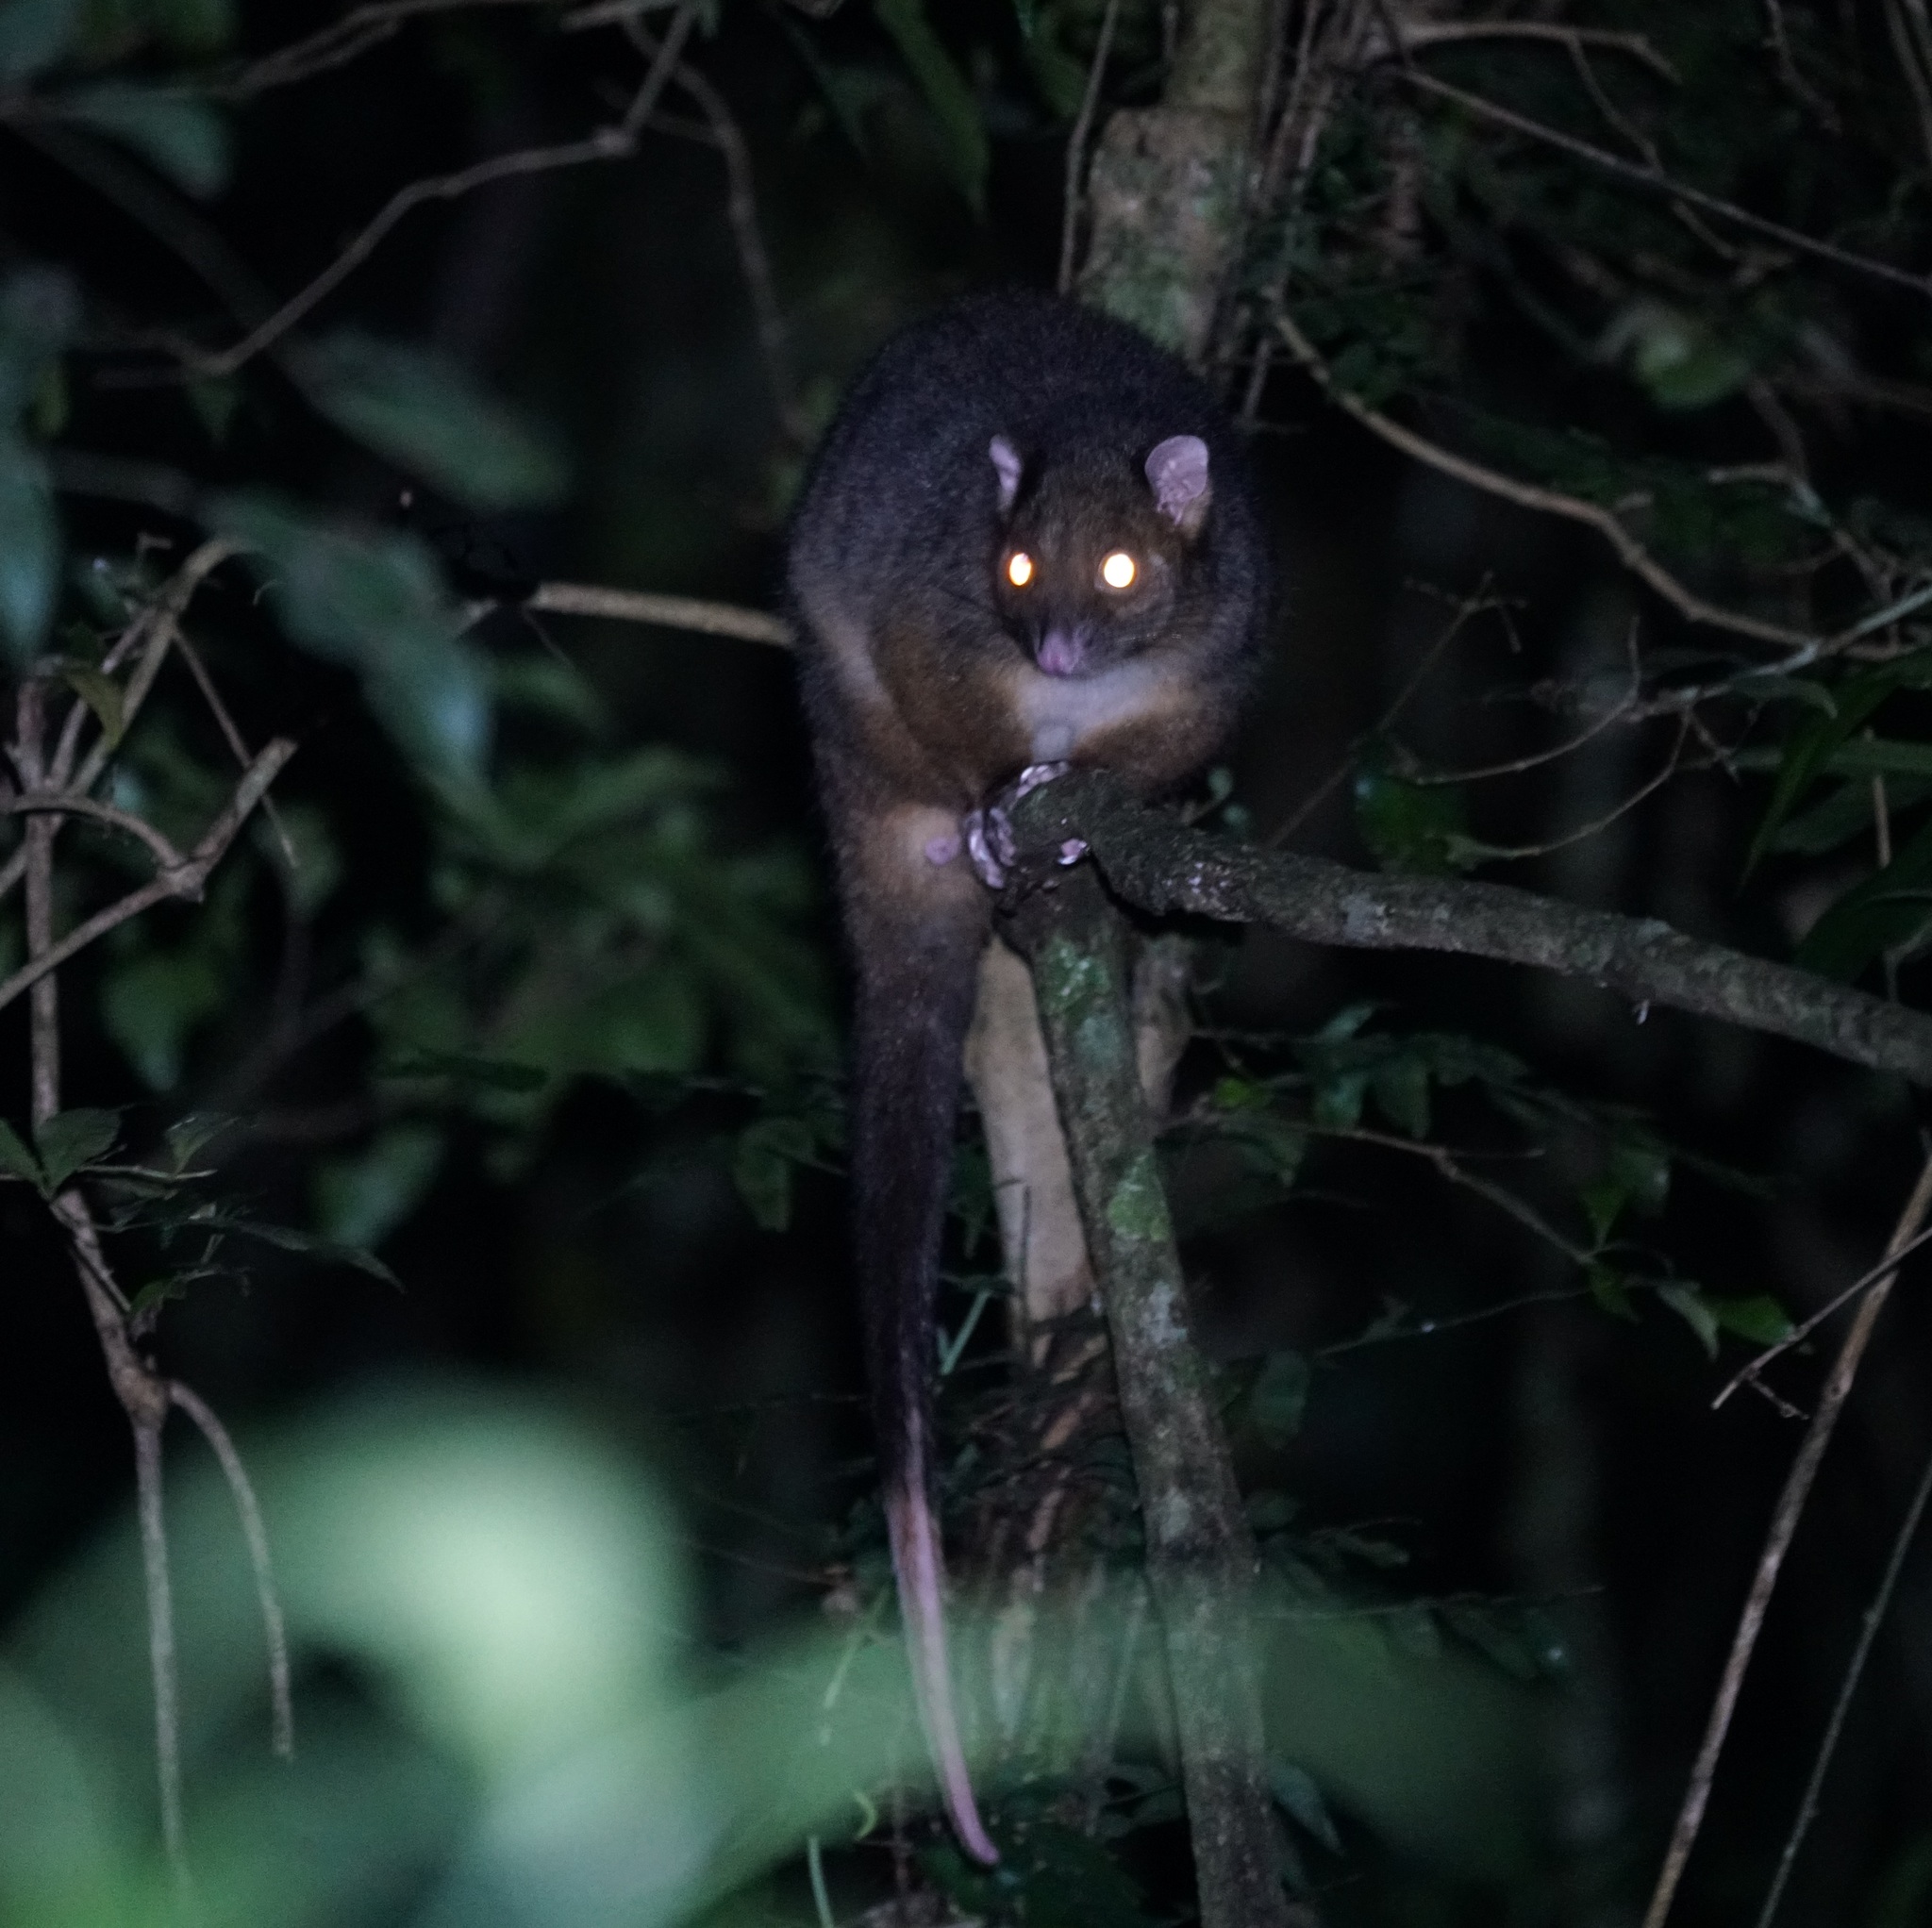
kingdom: Animalia
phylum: Chordata
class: Mammalia
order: Diprotodontia
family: Pseudocheiridae
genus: Pseudocheirus
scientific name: Pseudocheirus peregrinus
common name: Common ringtail possum
